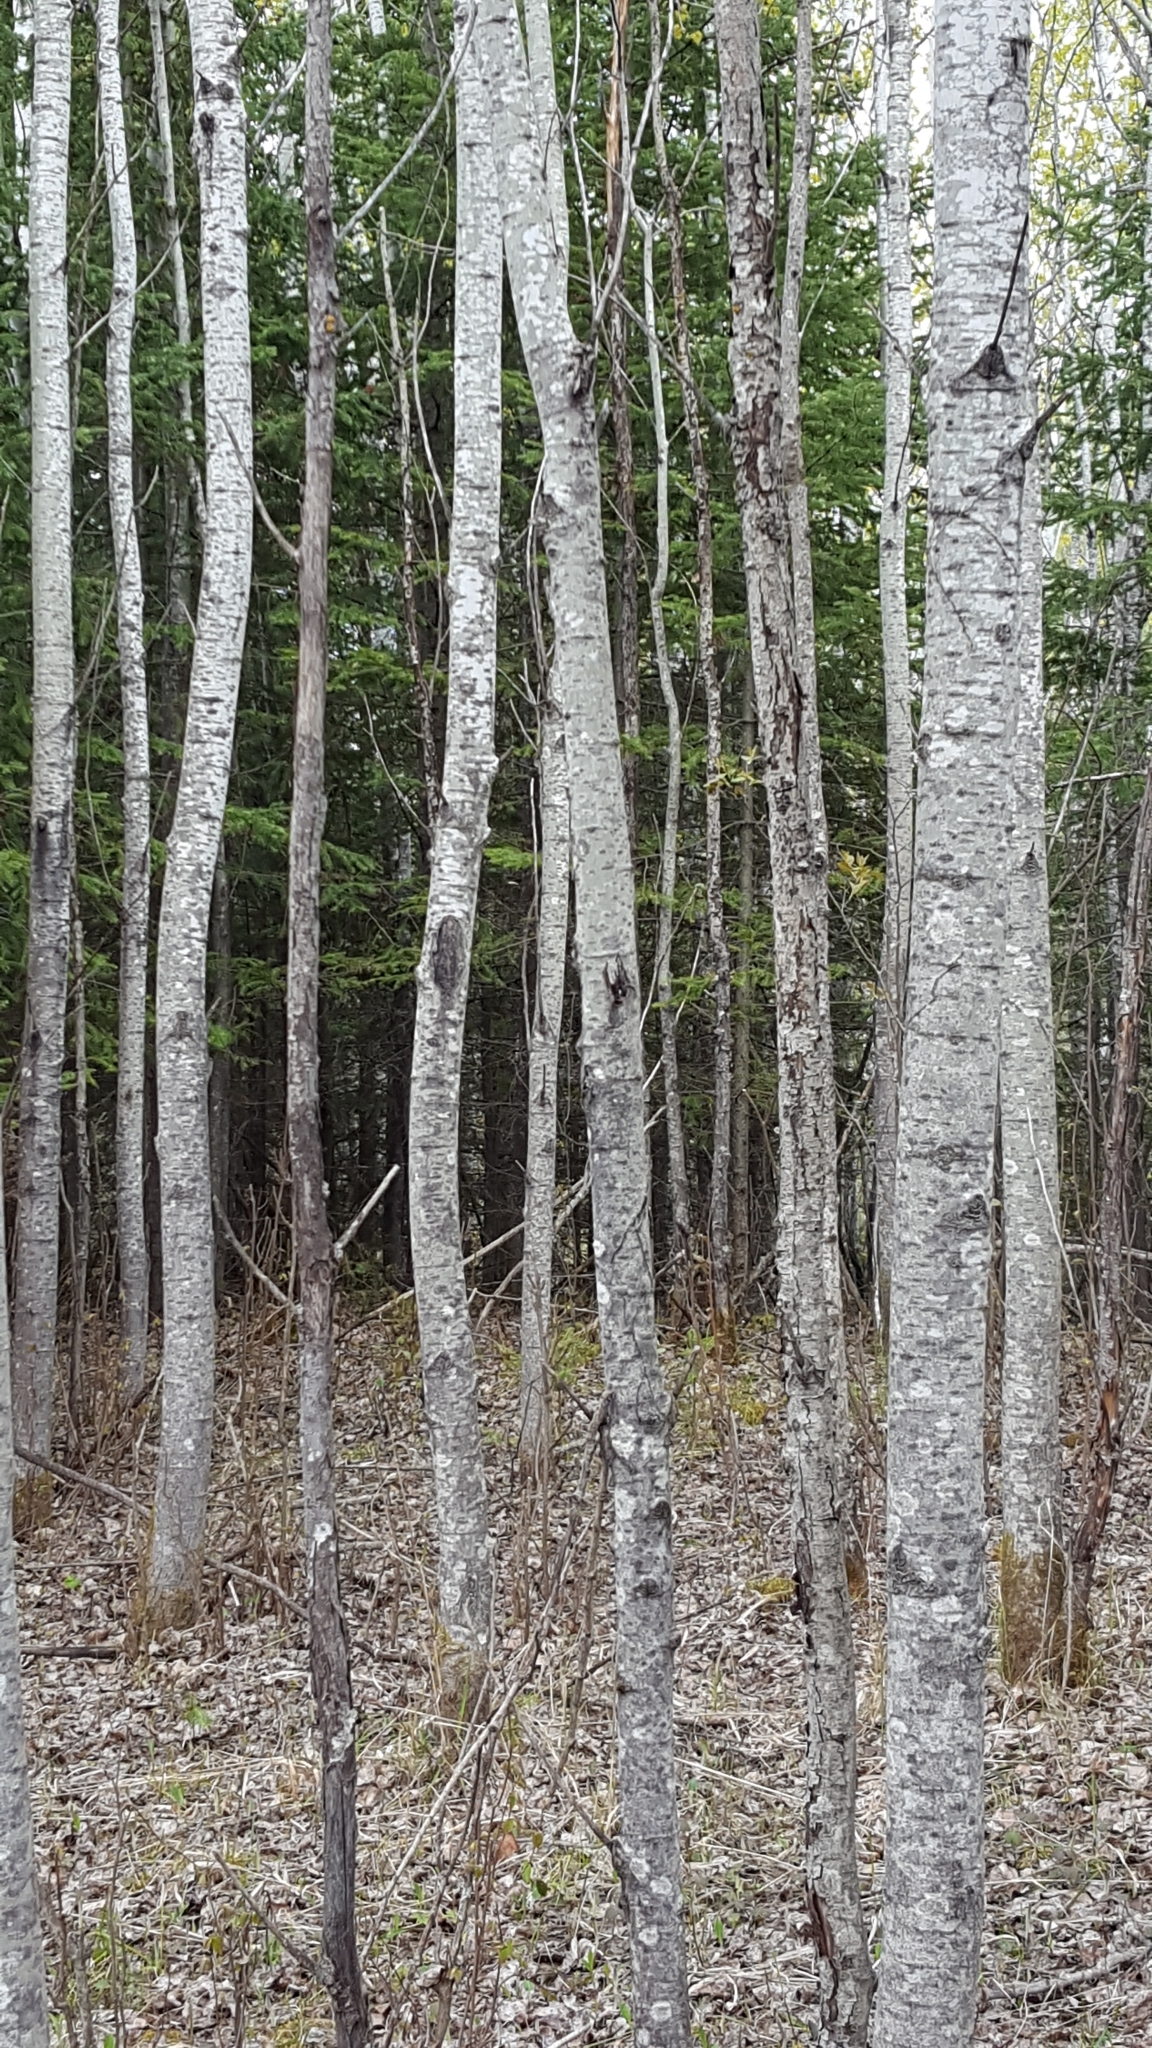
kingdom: Plantae
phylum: Tracheophyta
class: Magnoliopsida
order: Malpighiales
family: Salicaceae
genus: Populus
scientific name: Populus tremuloides
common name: Quaking aspen
